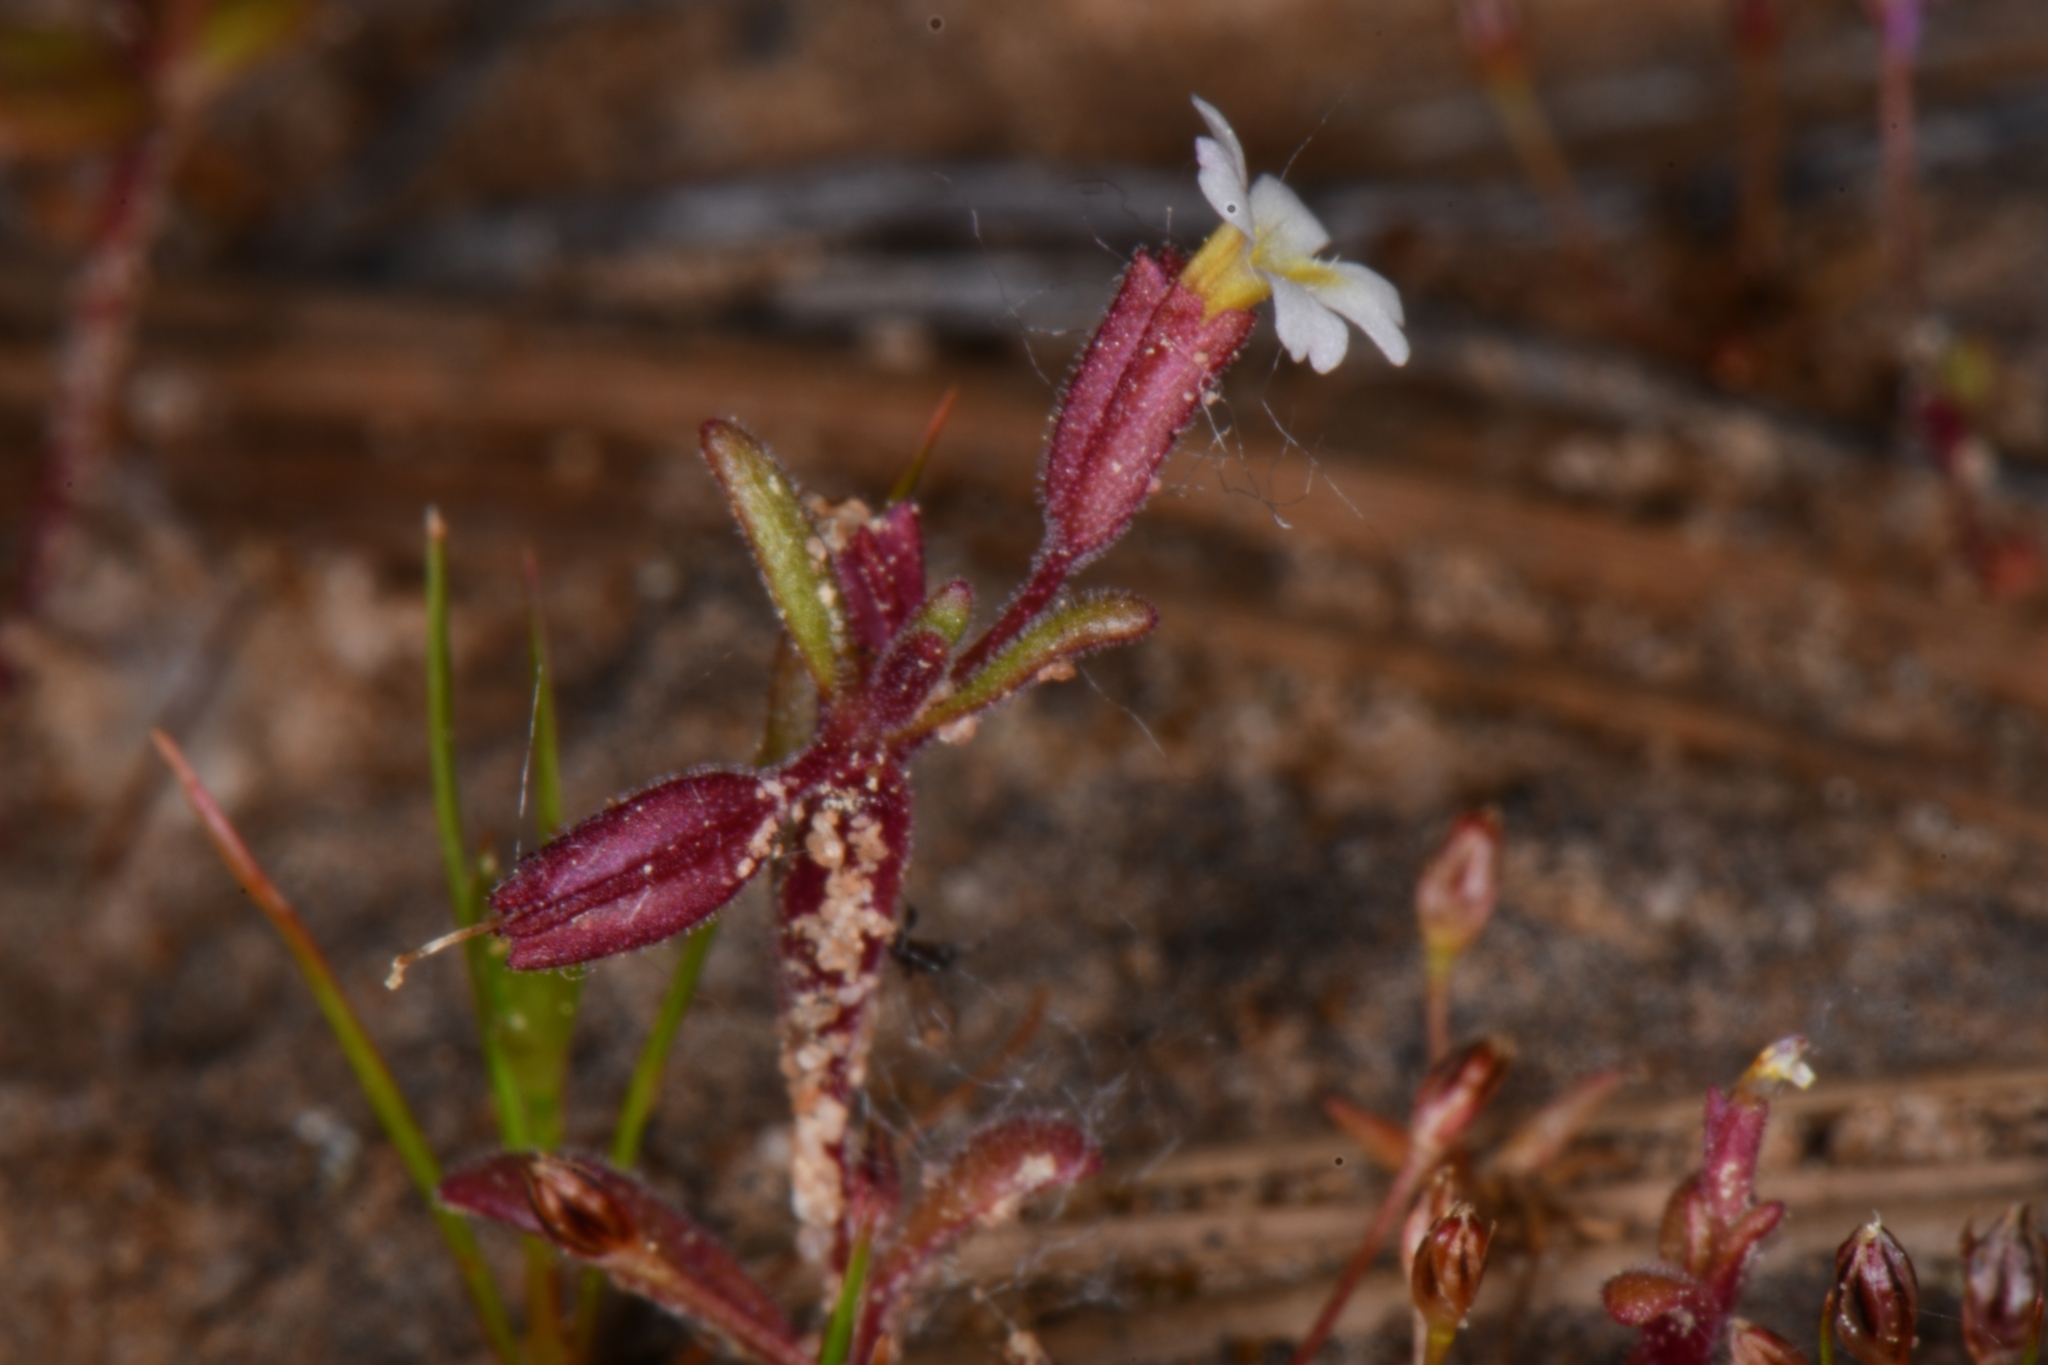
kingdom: Plantae
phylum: Tracheophyta
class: Magnoliopsida
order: Lamiales
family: Phrymaceae
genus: Erythranthe
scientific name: Erythranthe rubella
